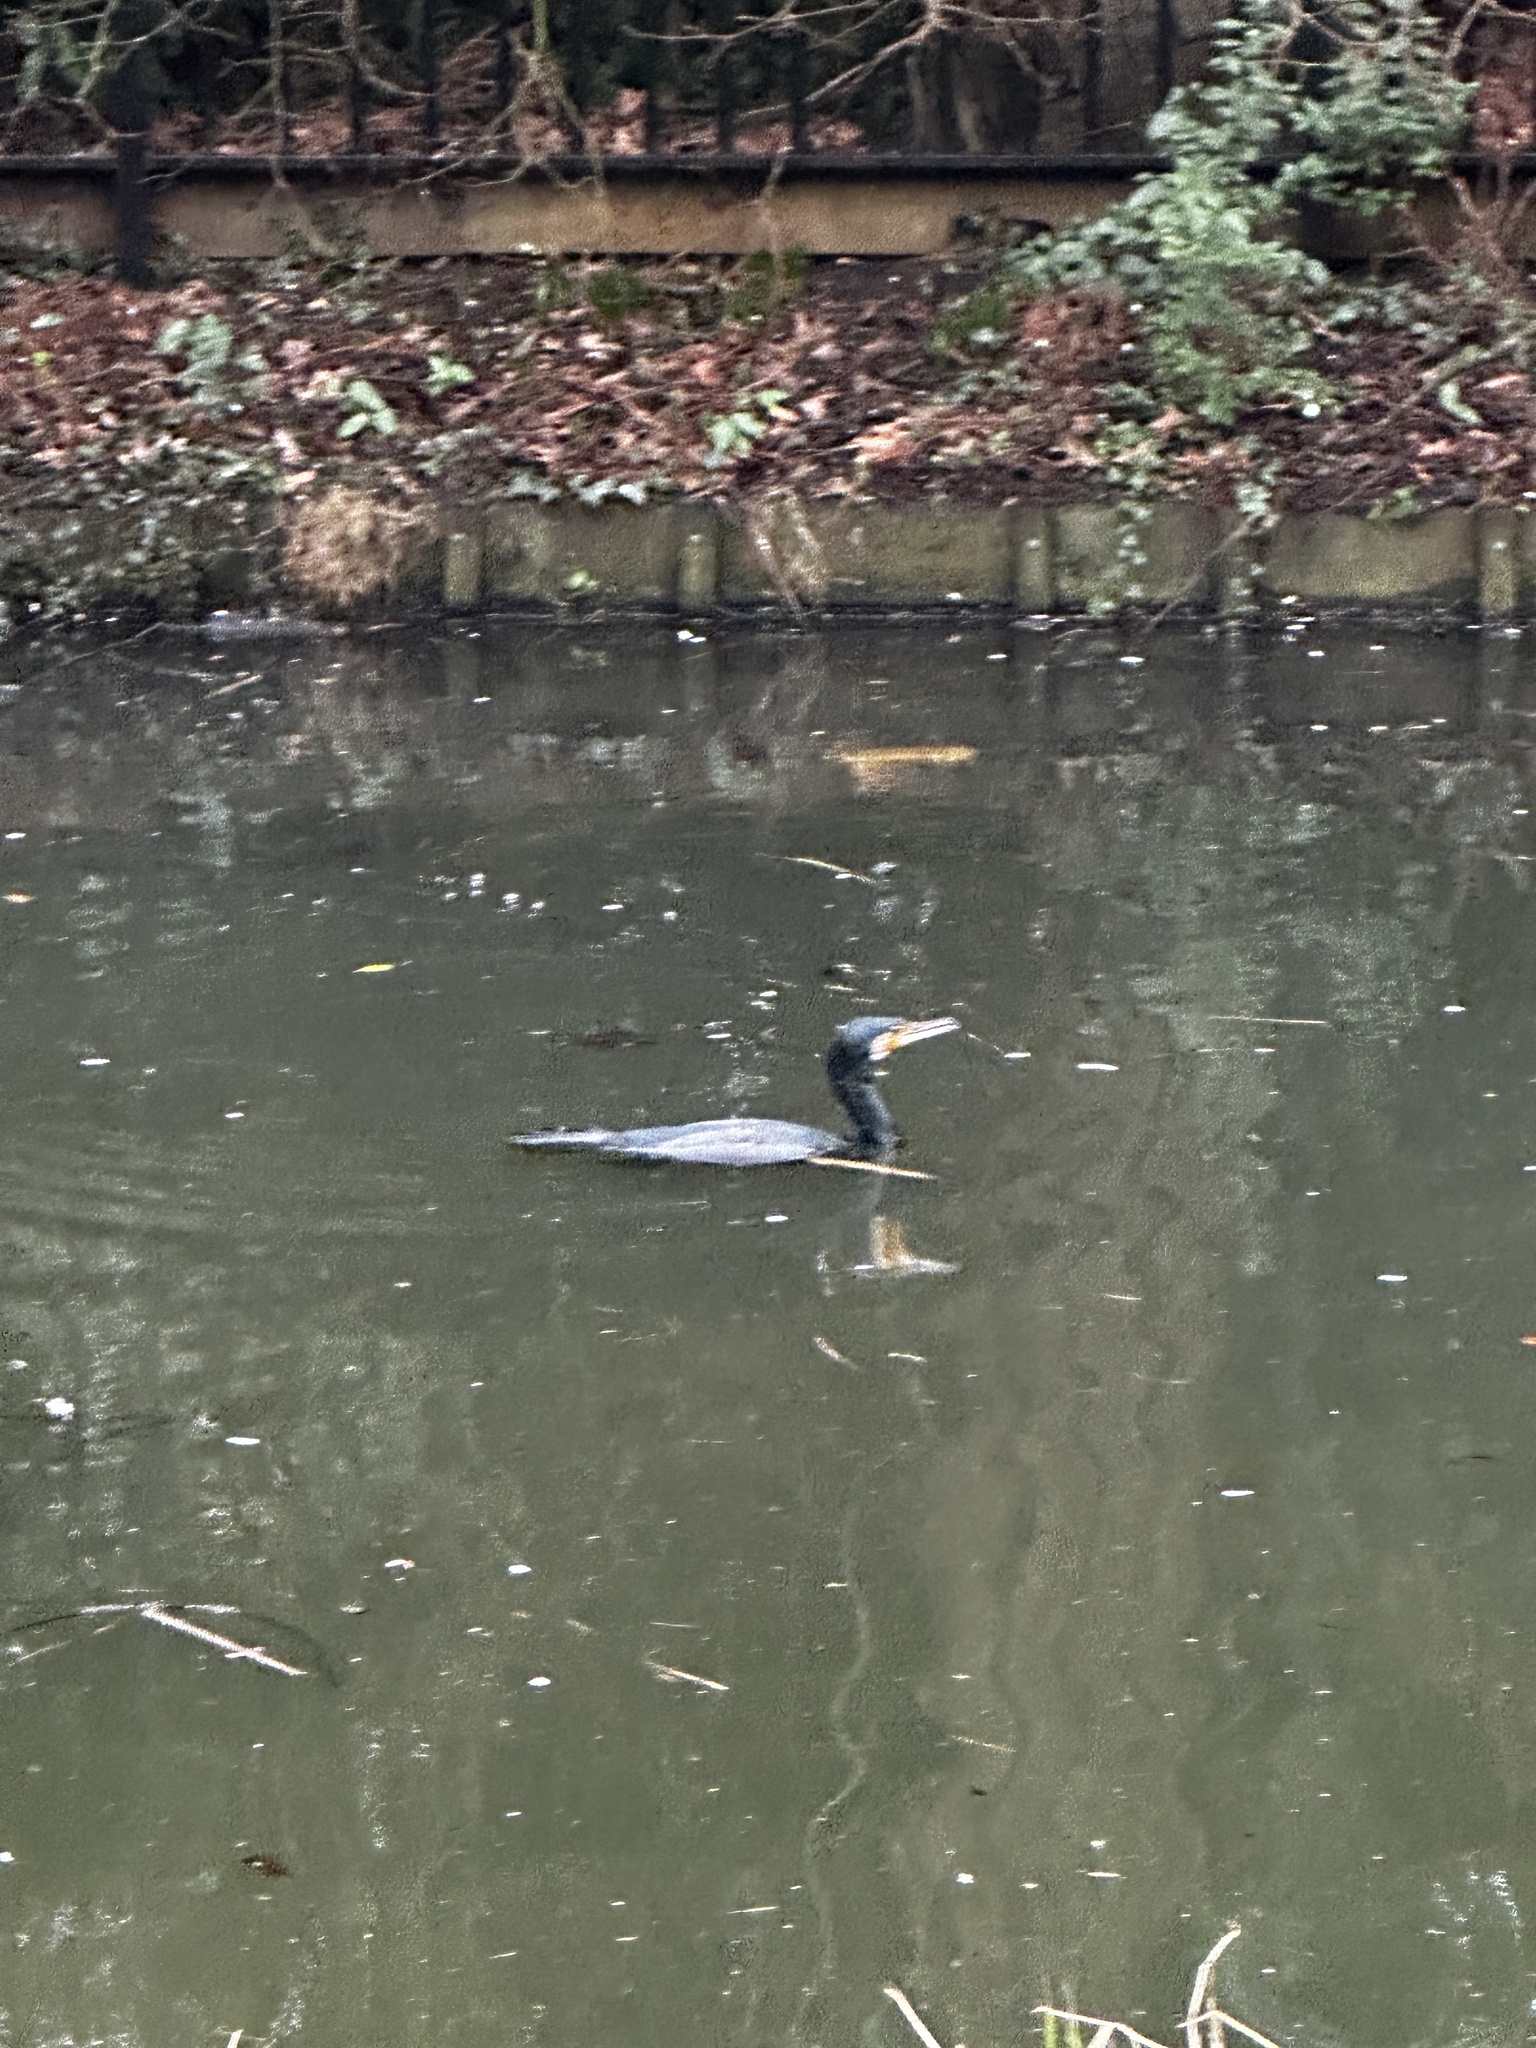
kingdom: Animalia
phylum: Chordata
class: Aves
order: Suliformes
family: Phalacrocoracidae
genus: Phalacrocorax
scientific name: Phalacrocorax carbo
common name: Great cormorant
